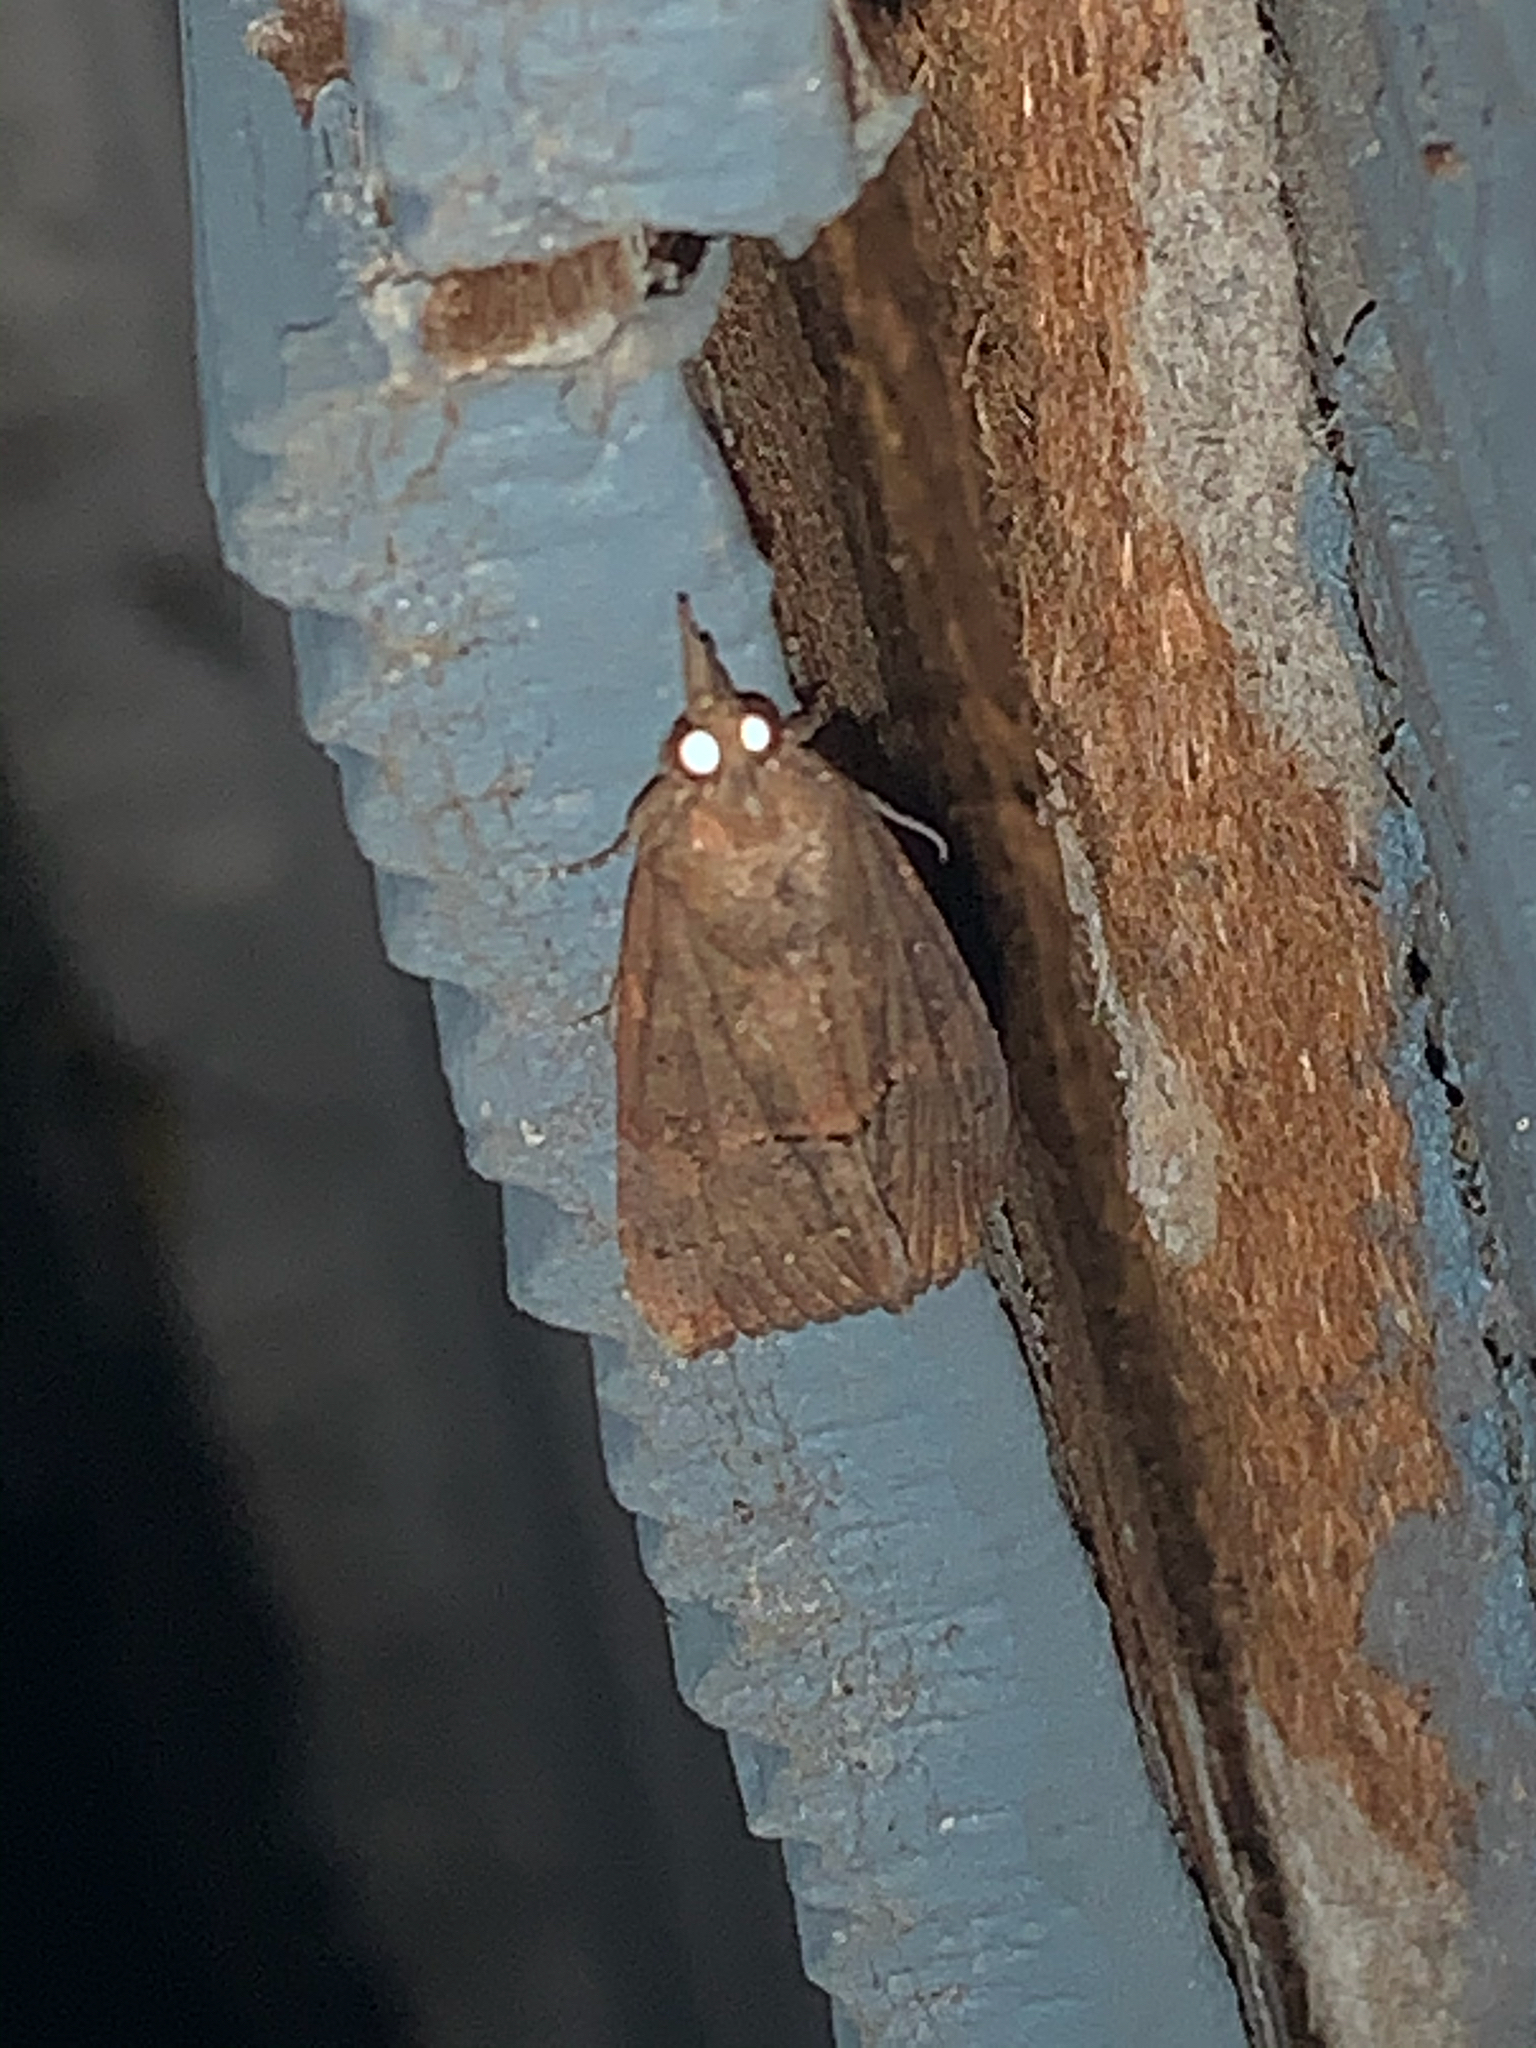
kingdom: Animalia
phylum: Arthropoda
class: Insecta
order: Lepidoptera
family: Erebidae
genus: Hypena
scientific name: Hypena scabra
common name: Green cloverworm
